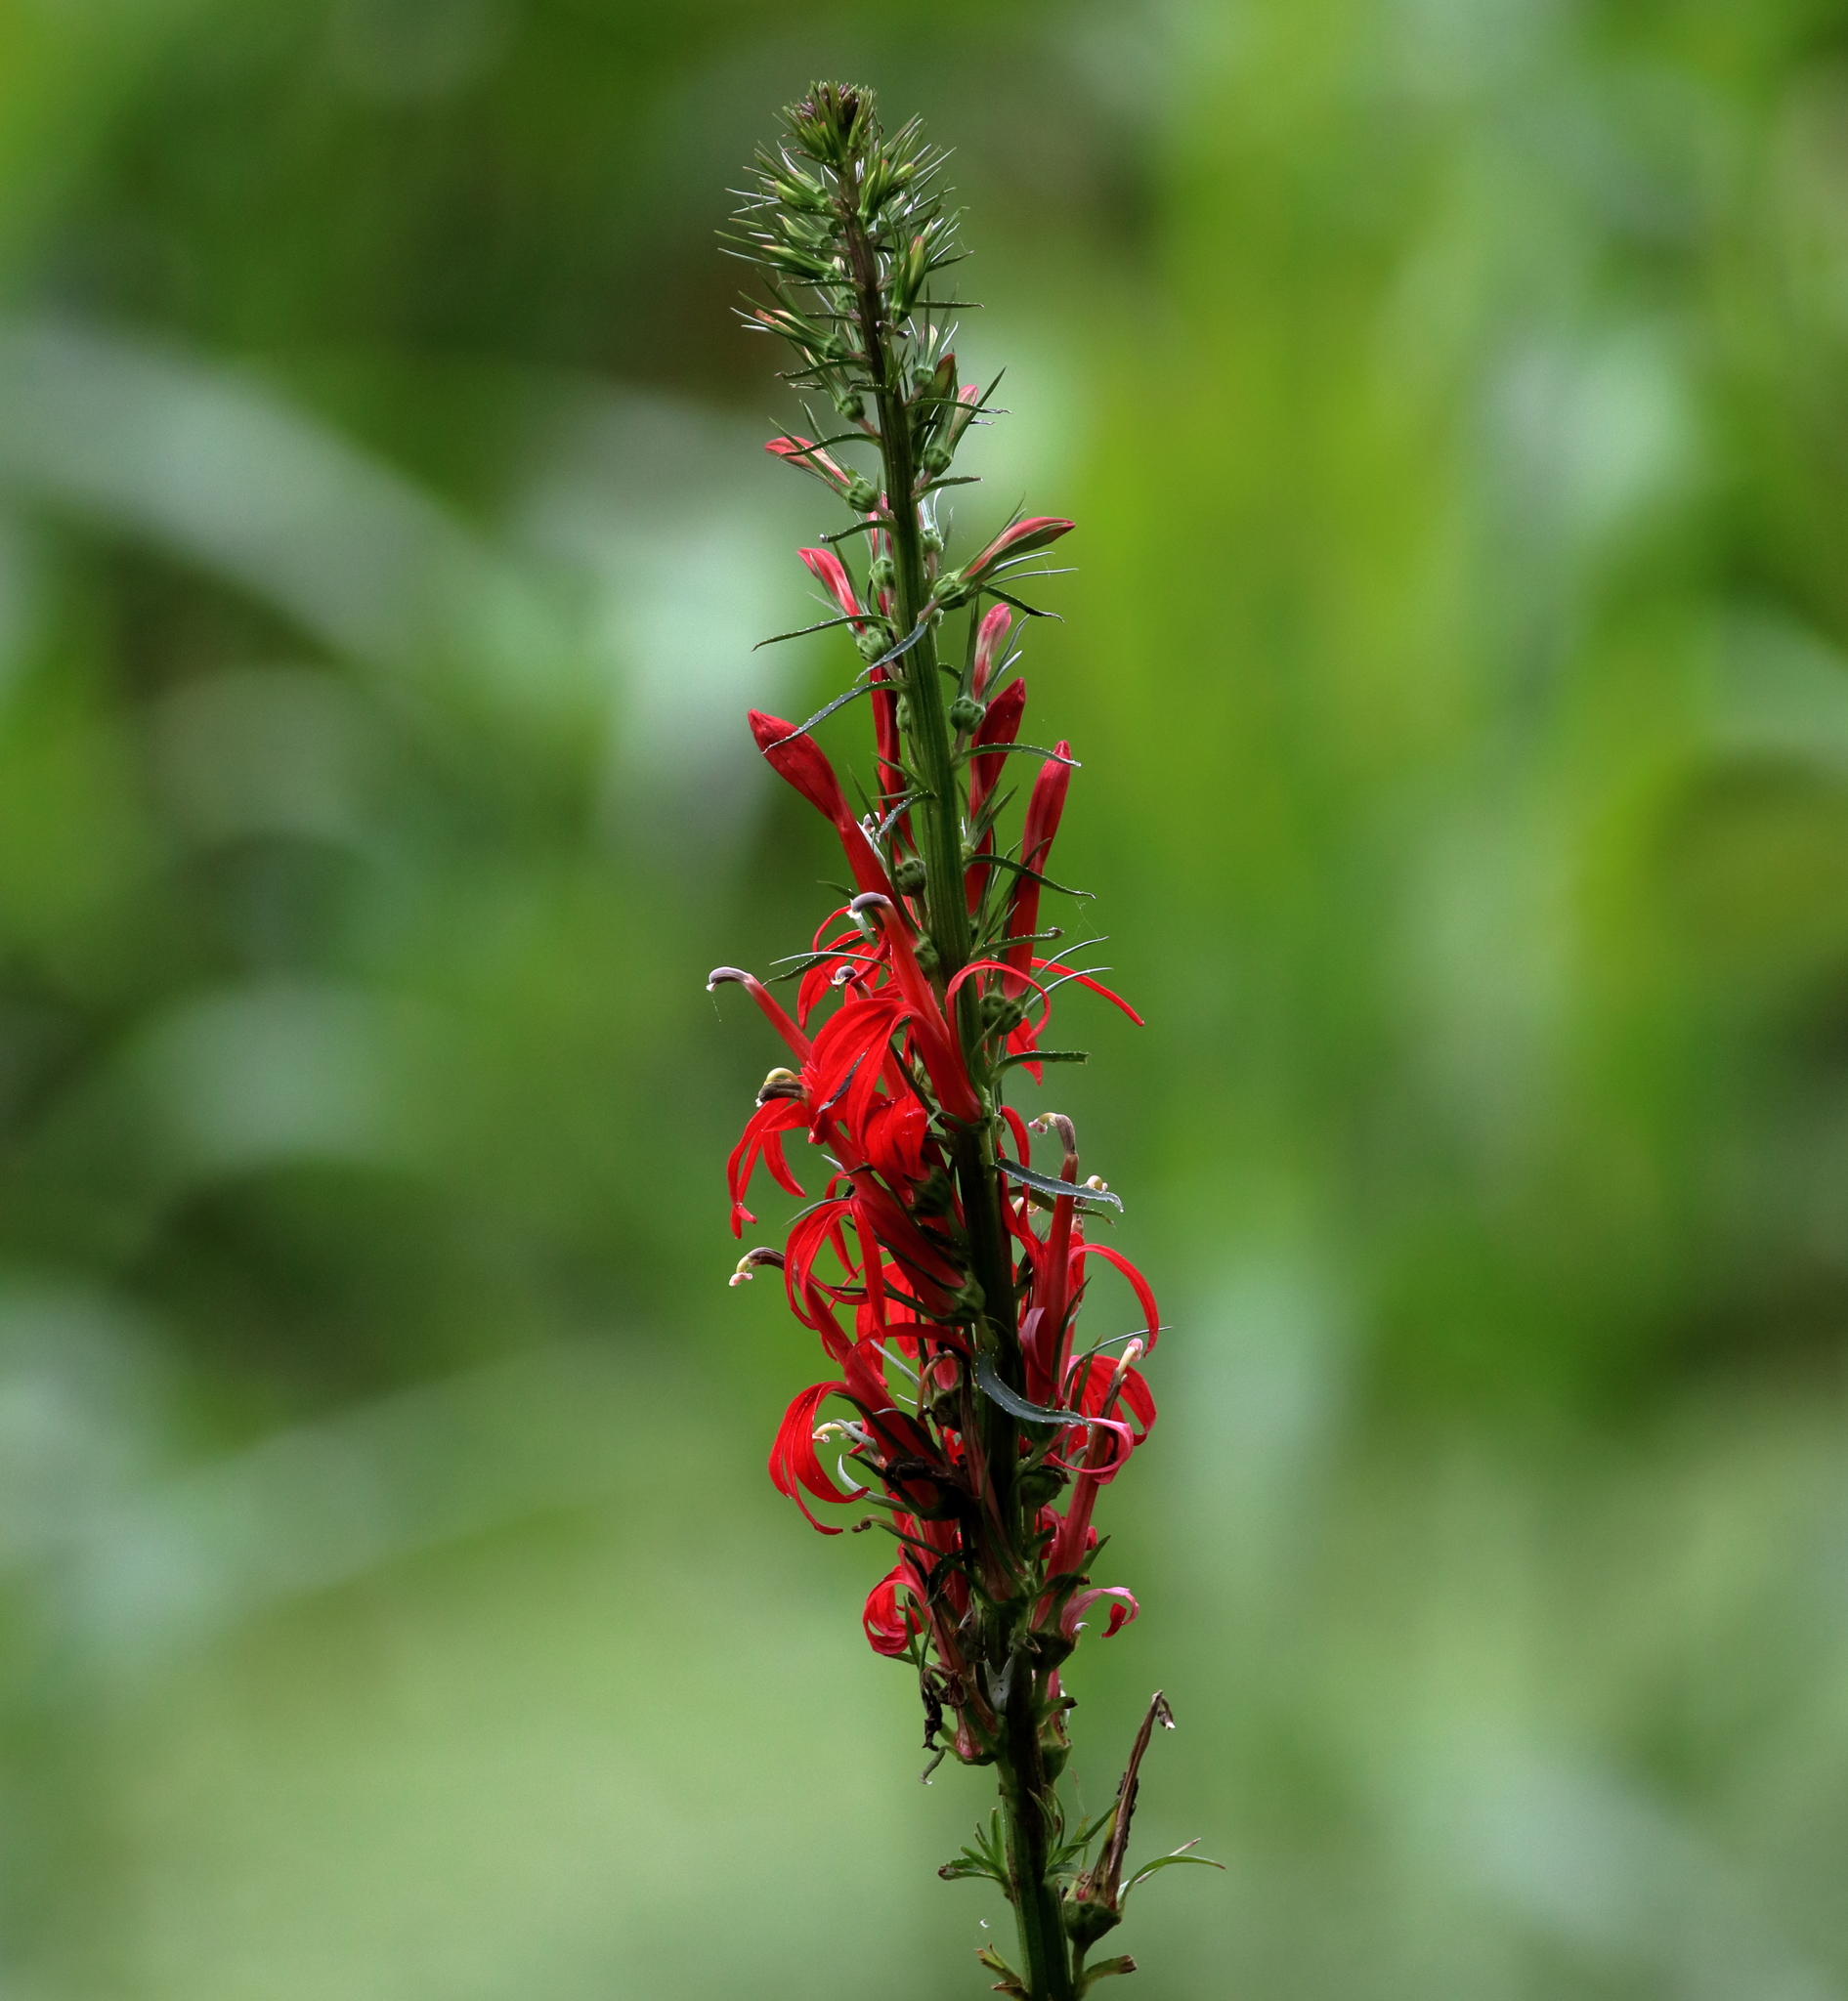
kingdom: Plantae
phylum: Tracheophyta
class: Magnoliopsida
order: Asterales
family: Campanulaceae
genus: Lobelia
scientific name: Lobelia cardinalis
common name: Cardinal flower
